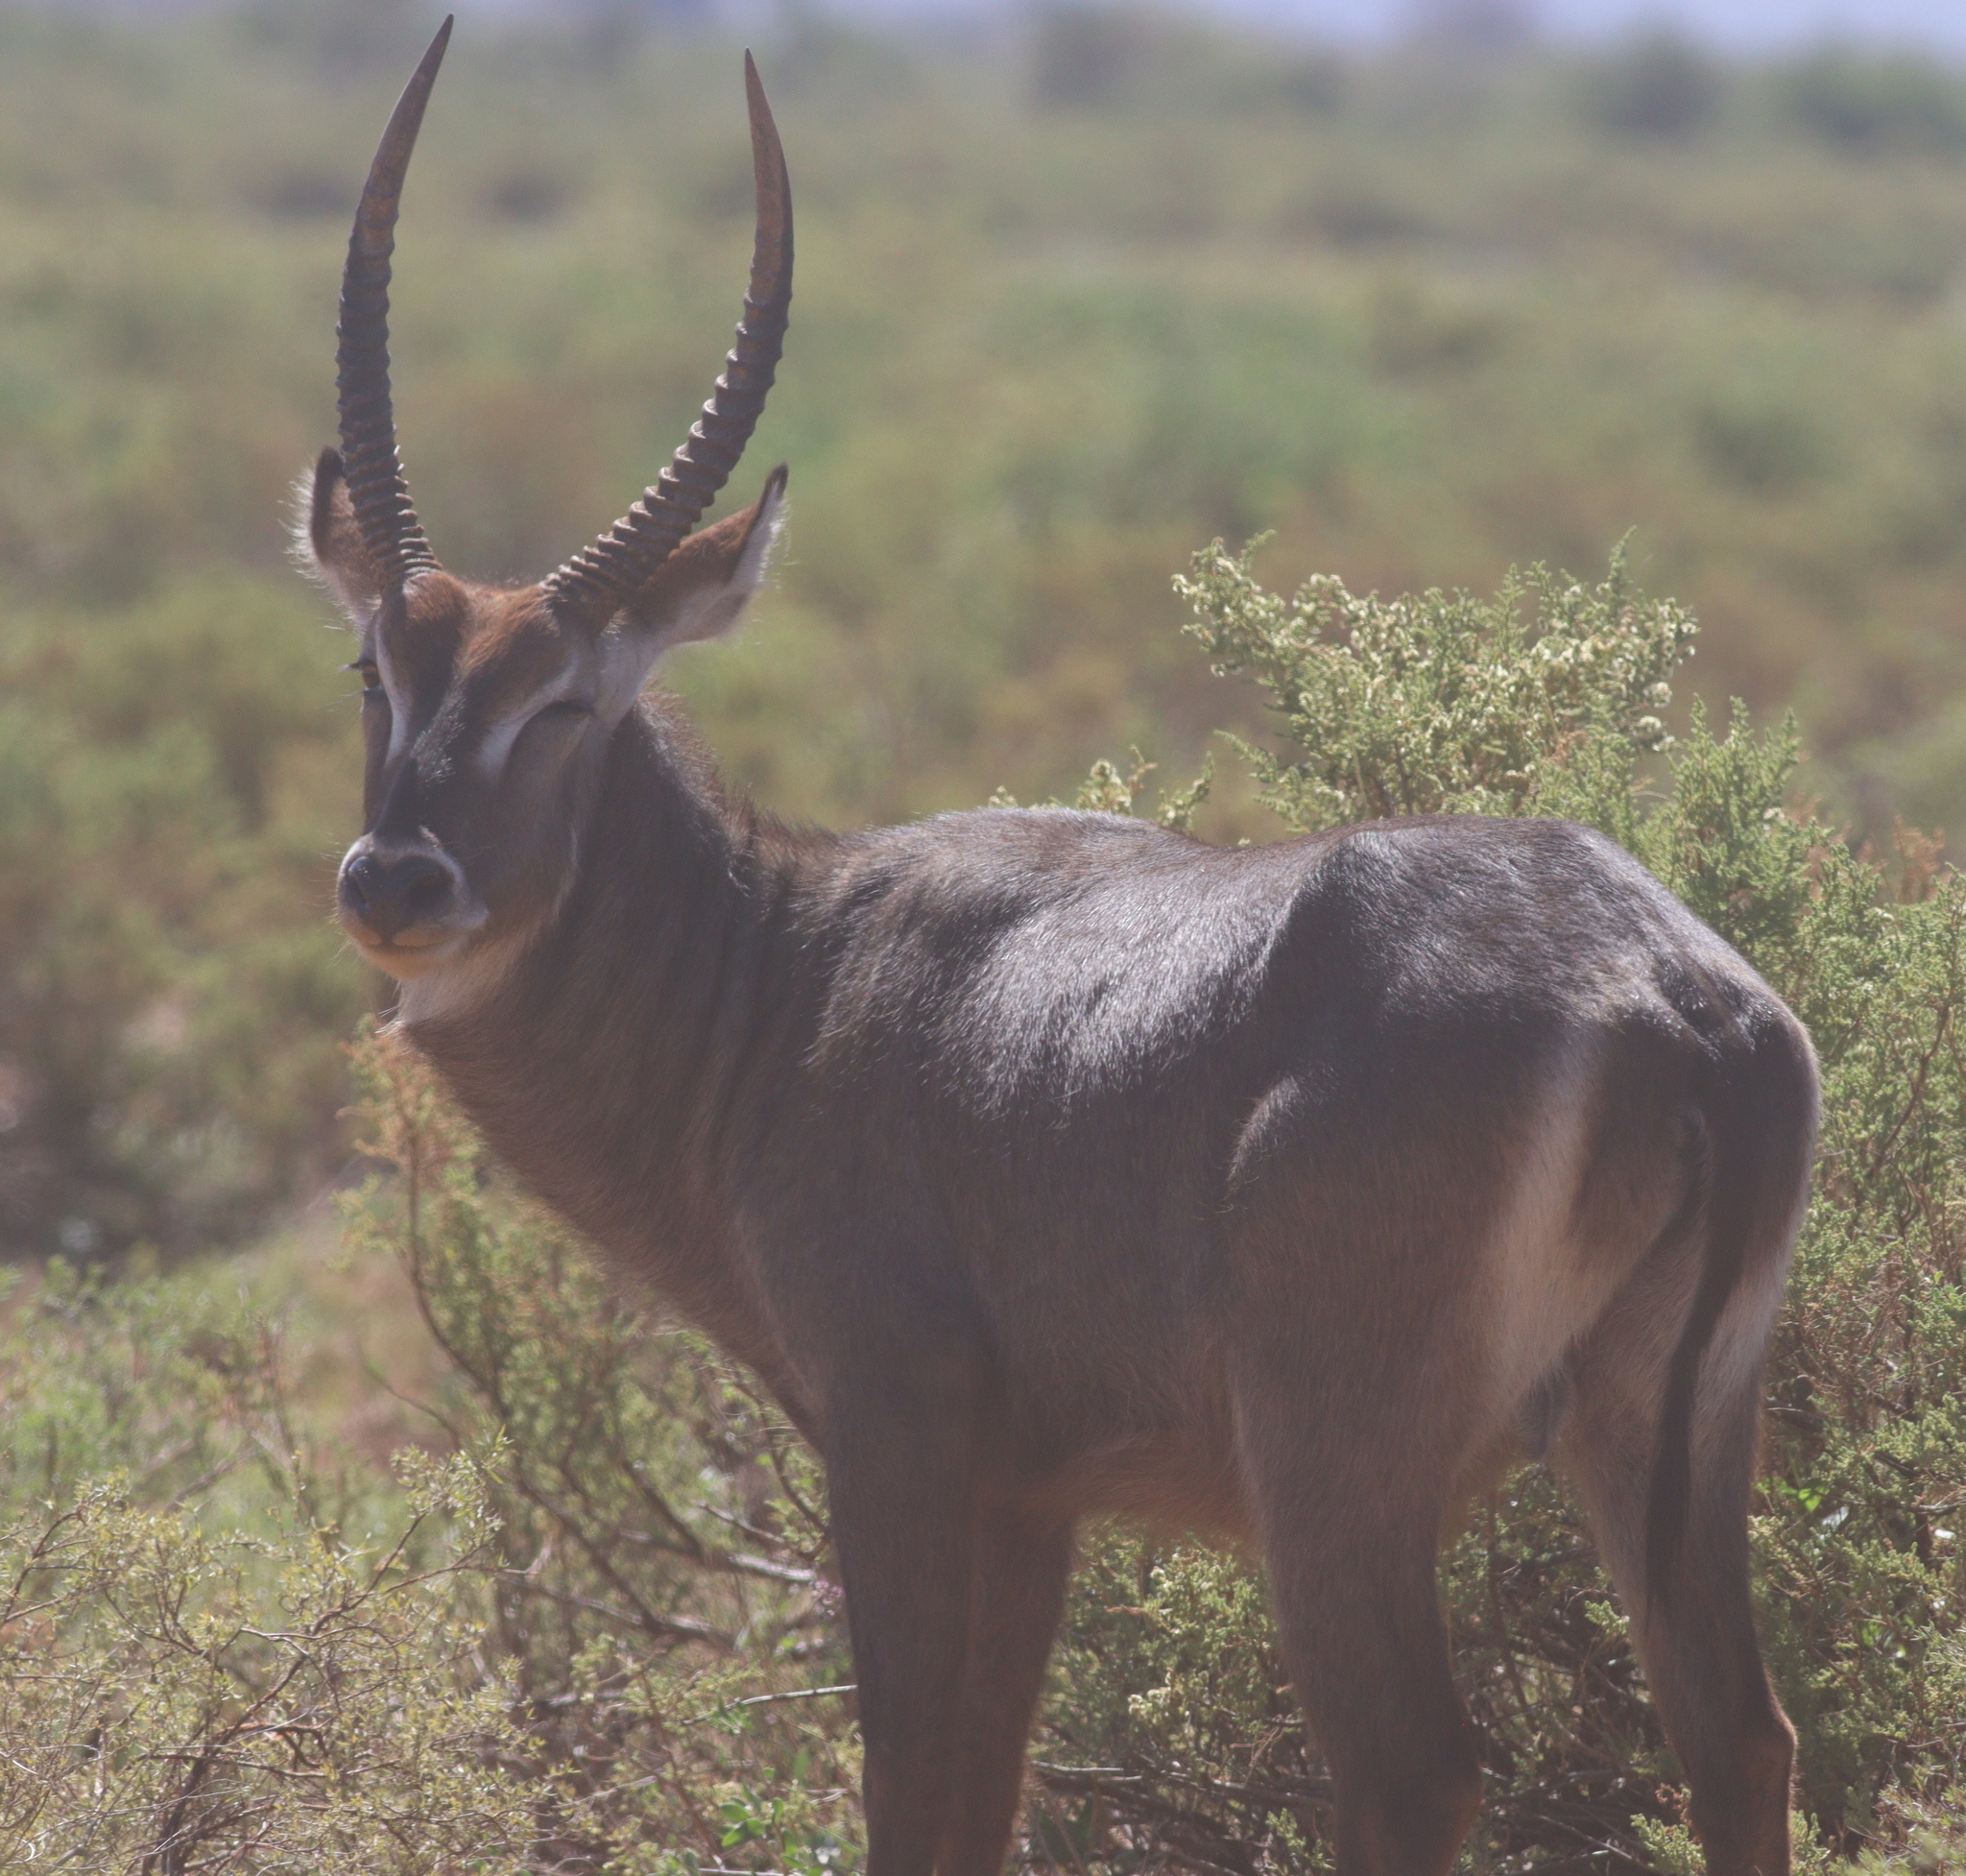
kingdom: Animalia
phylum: Chordata
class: Mammalia
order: Artiodactyla
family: Bovidae
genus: Kobus
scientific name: Kobus ellipsiprymnus
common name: Waterbuck
